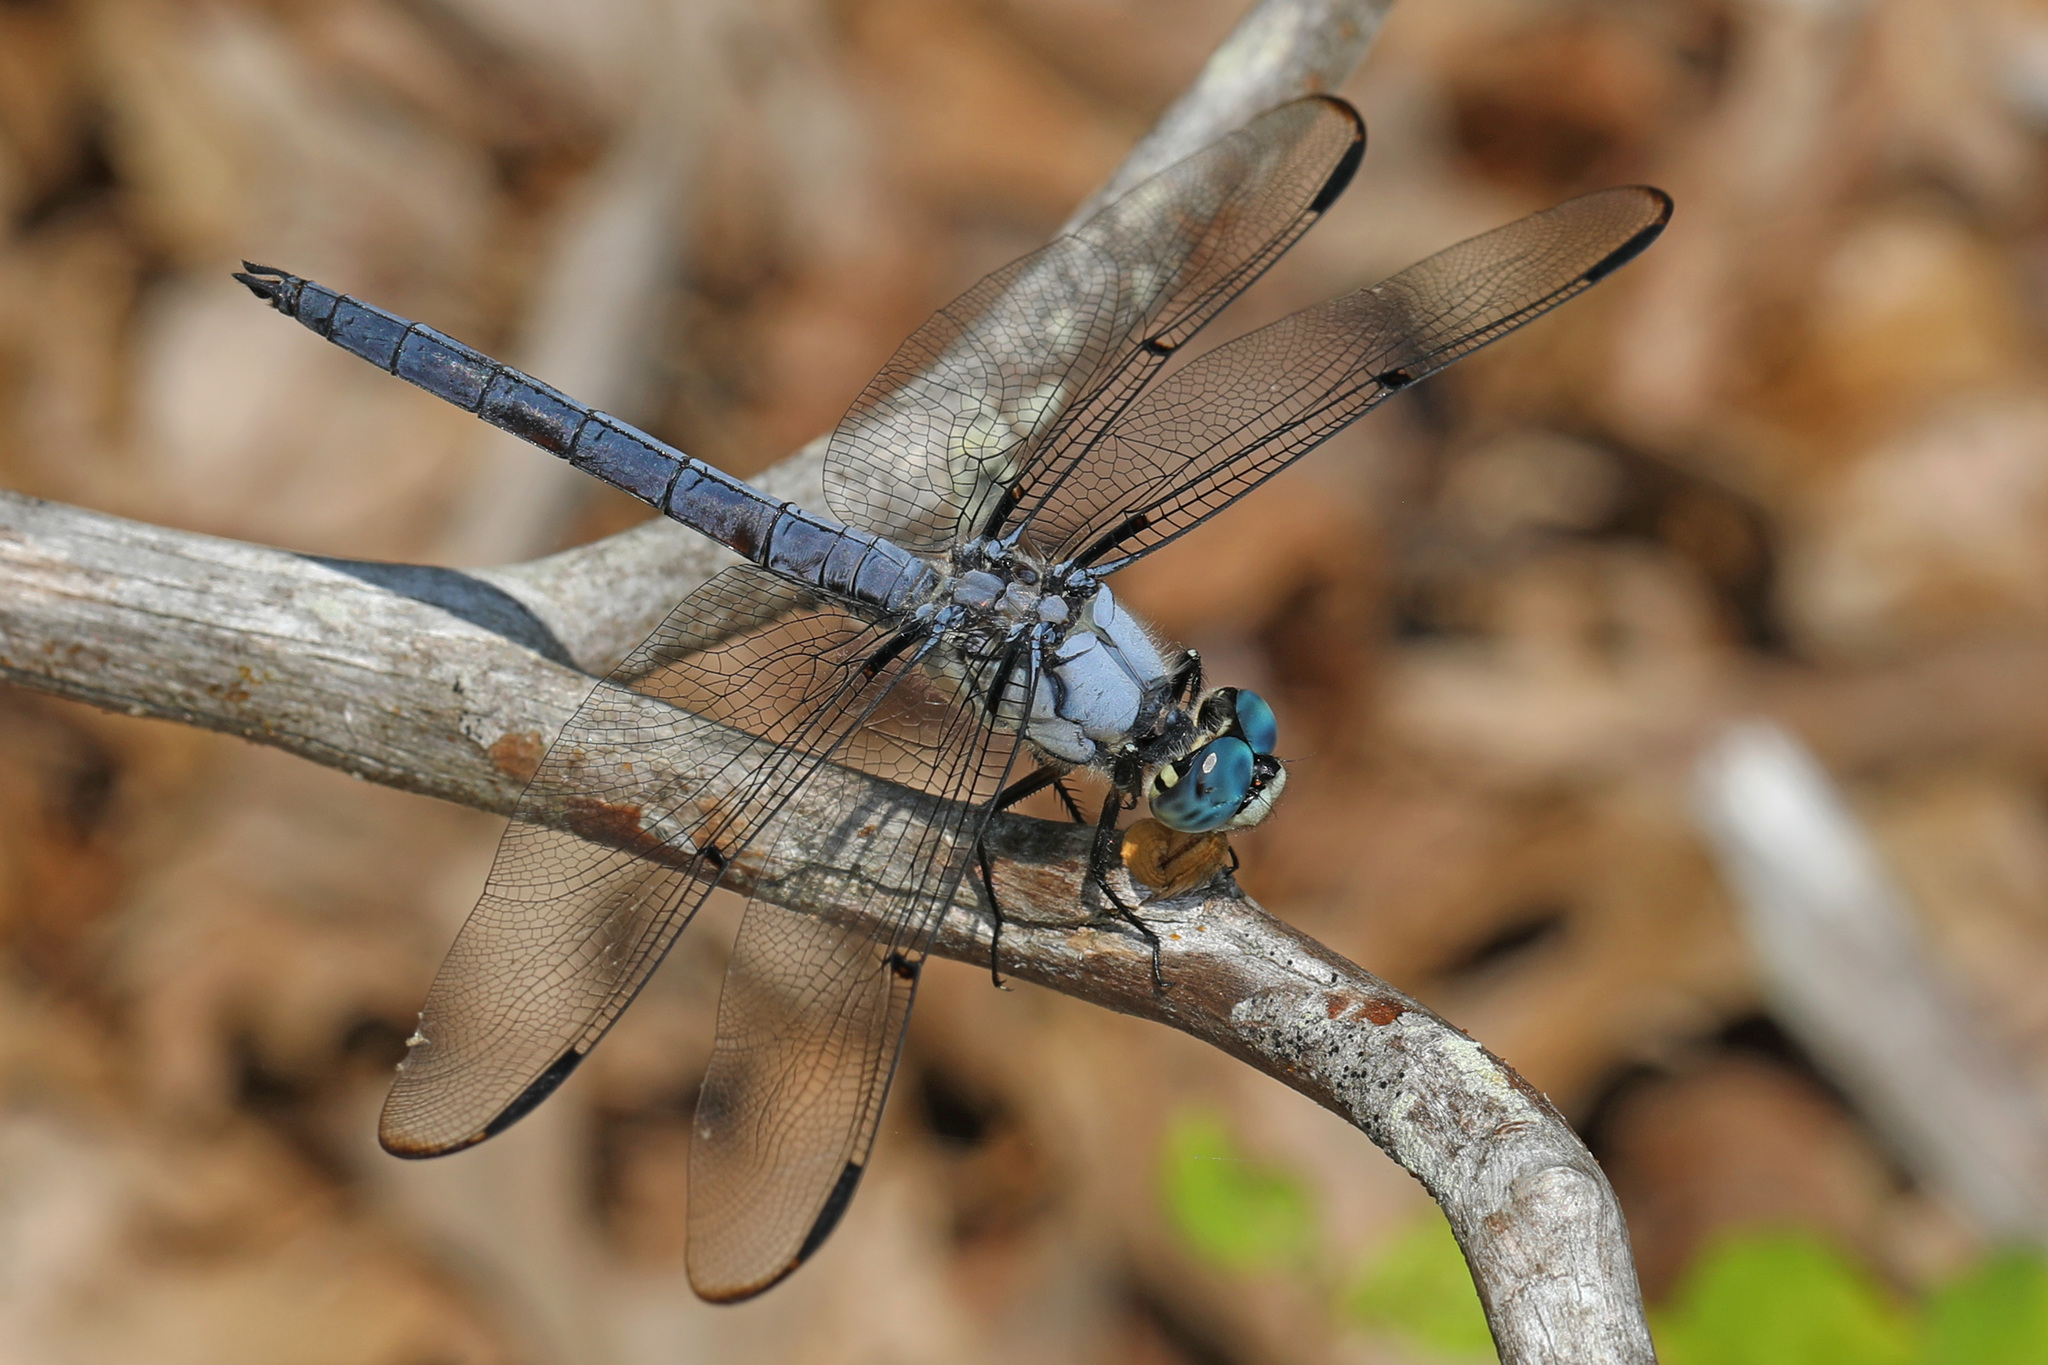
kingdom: Animalia
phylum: Arthropoda
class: Insecta
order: Odonata
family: Libellulidae
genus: Libellula
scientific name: Libellula vibrans
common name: Great blue skimmer
